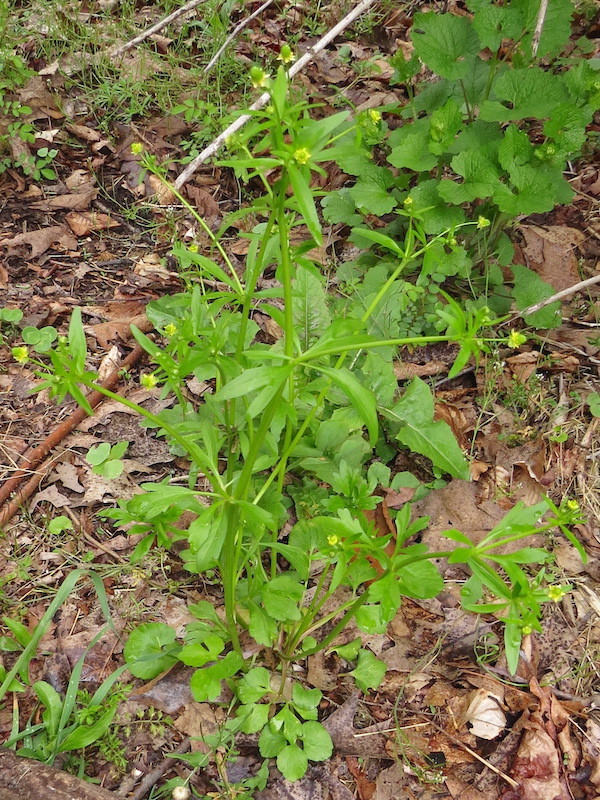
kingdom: Plantae
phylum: Tracheophyta
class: Magnoliopsida
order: Ranunculales
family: Ranunculaceae
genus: Ranunculus
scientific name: Ranunculus abortivus
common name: Early wood buttercup
